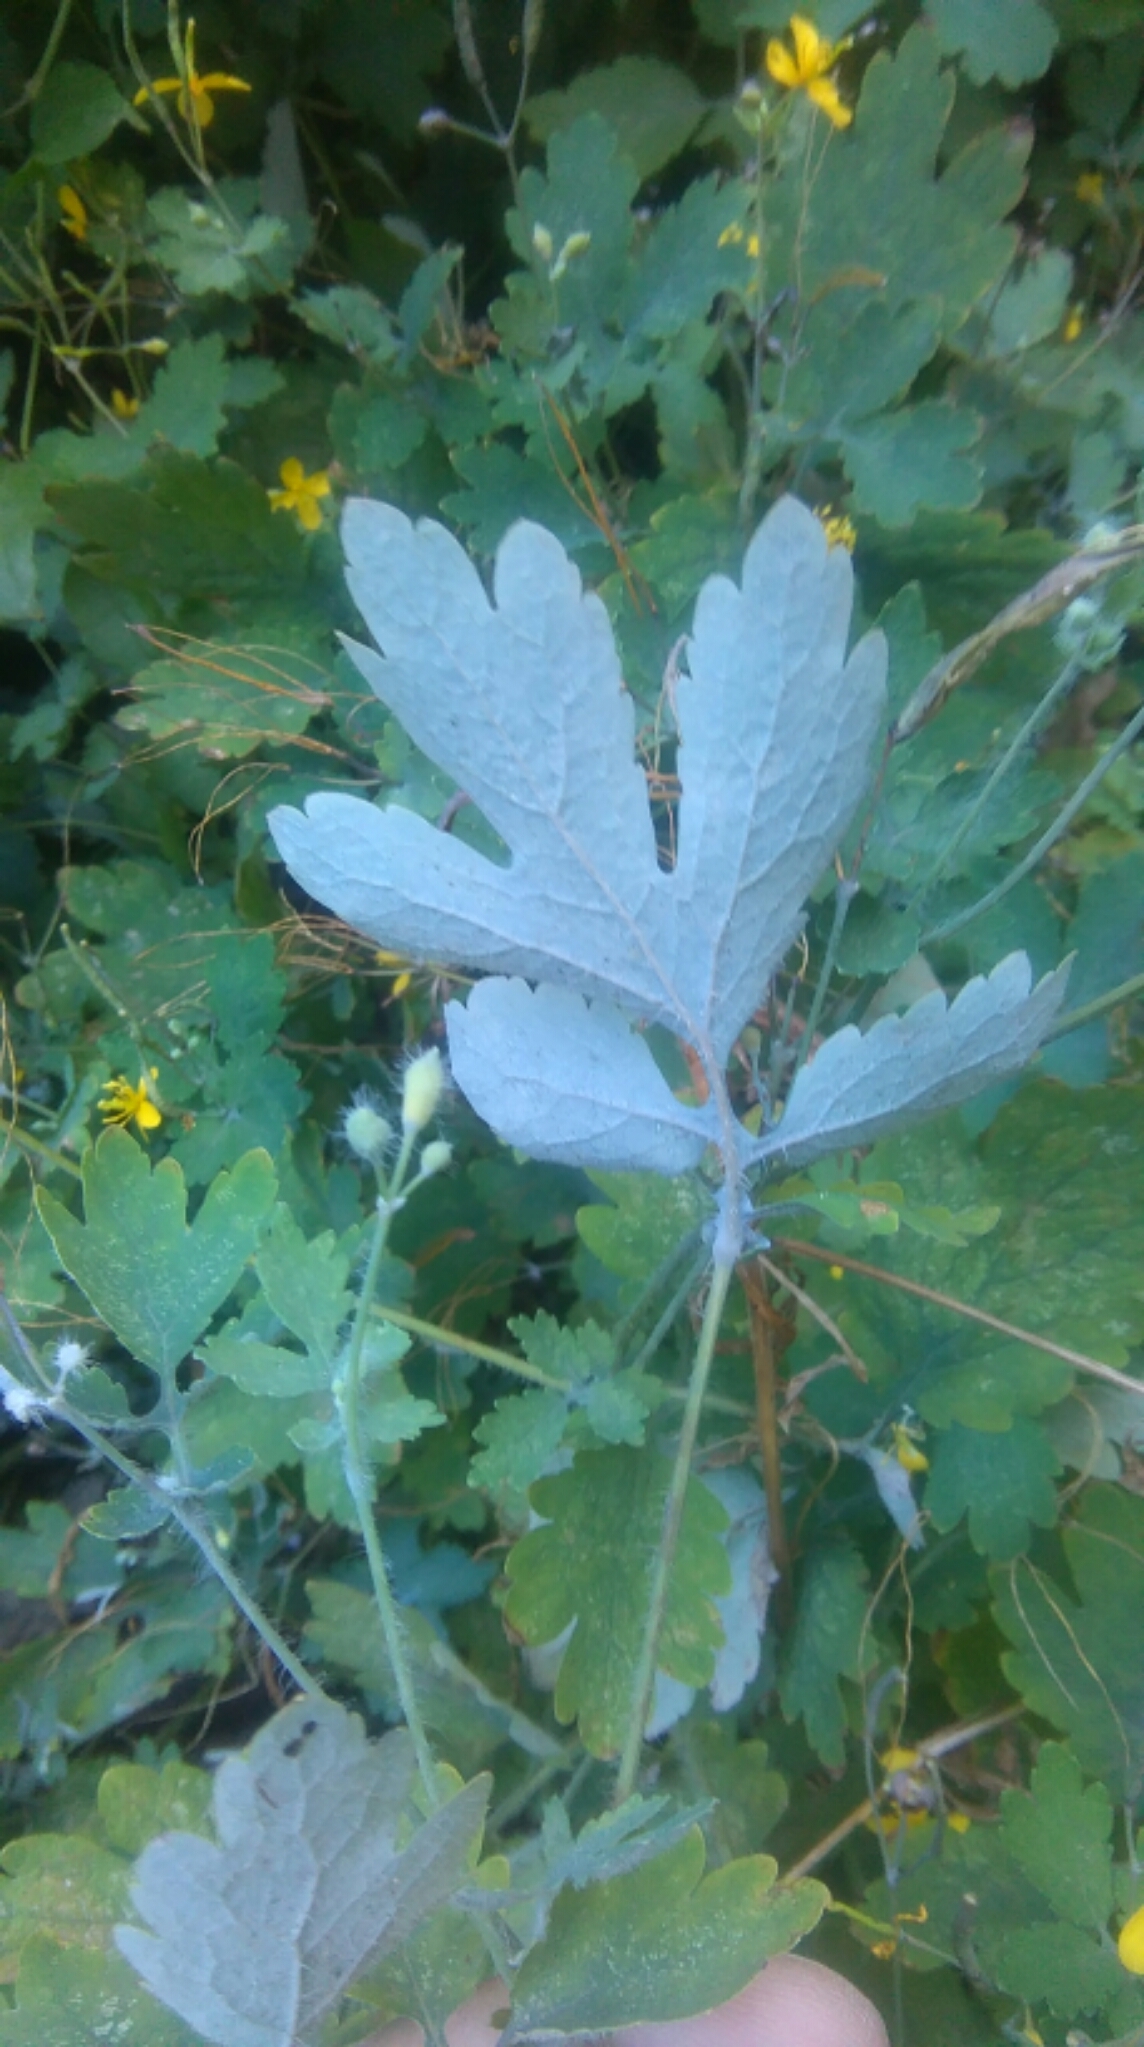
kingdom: Plantae
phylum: Tracheophyta
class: Magnoliopsida
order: Ranunculales
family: Papaveraceae
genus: Chelidonium
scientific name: Chelidonium majus
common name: Greater celandine
